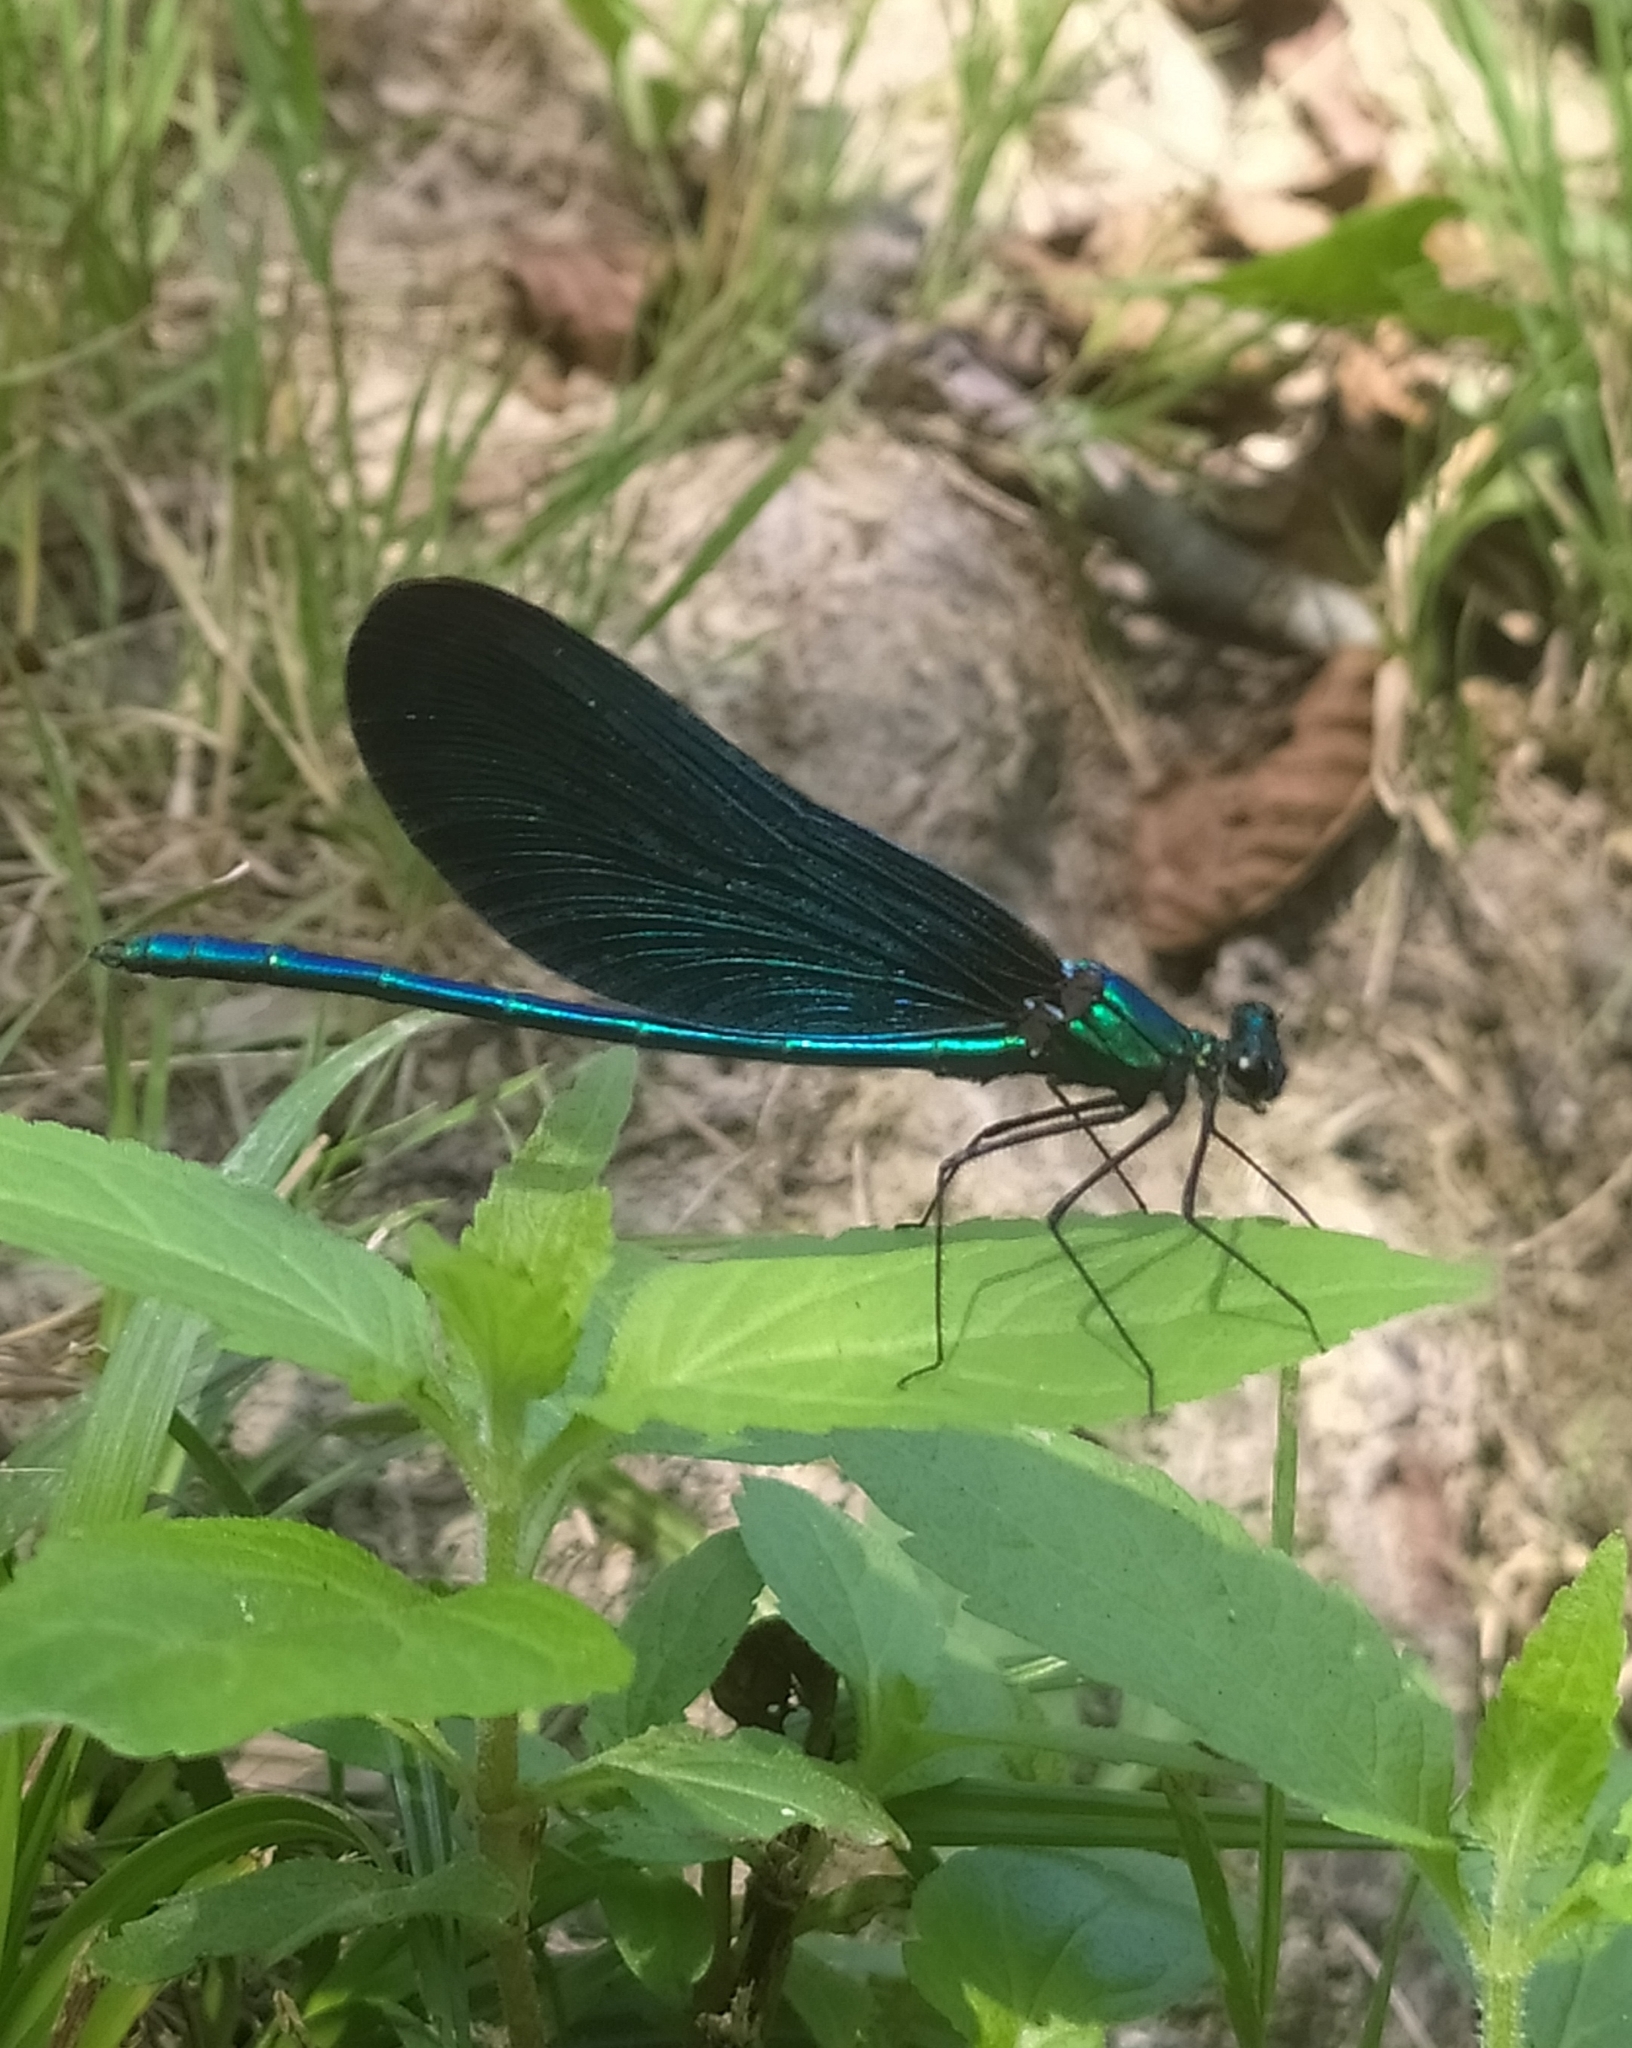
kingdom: Animalia
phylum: Arthropoda
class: Insecta
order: Odonata
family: Calopterygidae
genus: Calopteryx
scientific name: Calopteryx virgo
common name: Beautiful demoiselle
